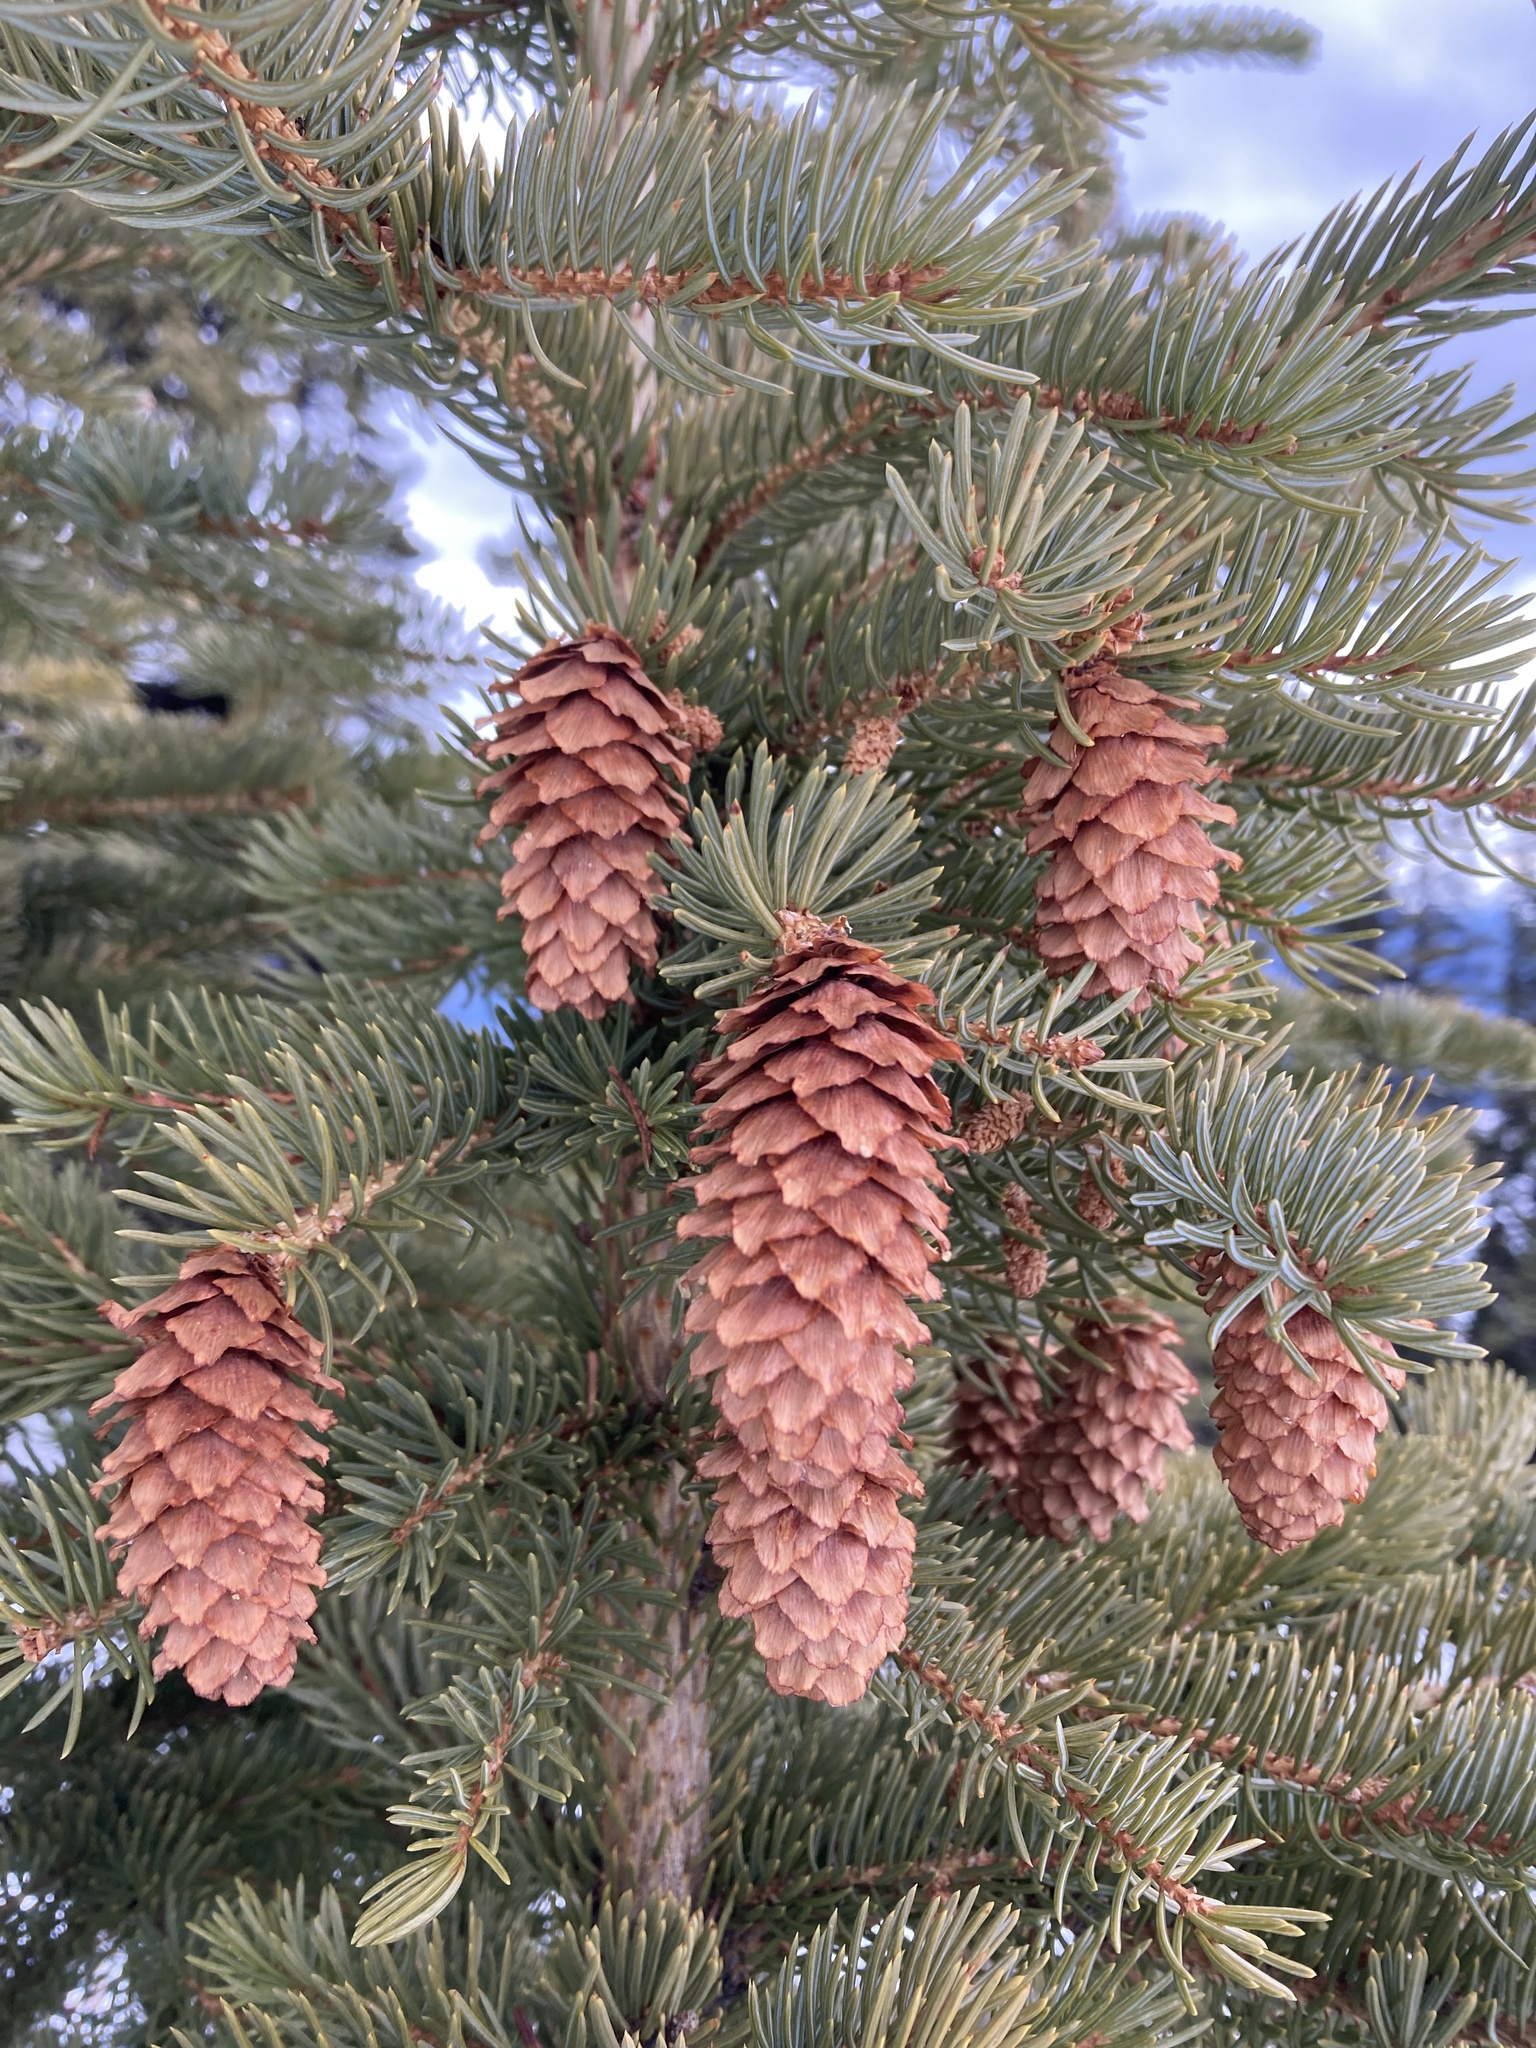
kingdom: Plantae
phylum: Tracheophyta
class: Pinopsida
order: Pinales
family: Pinaceae
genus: Picea
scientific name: Picea engelmannii
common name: Engelmann spruce
